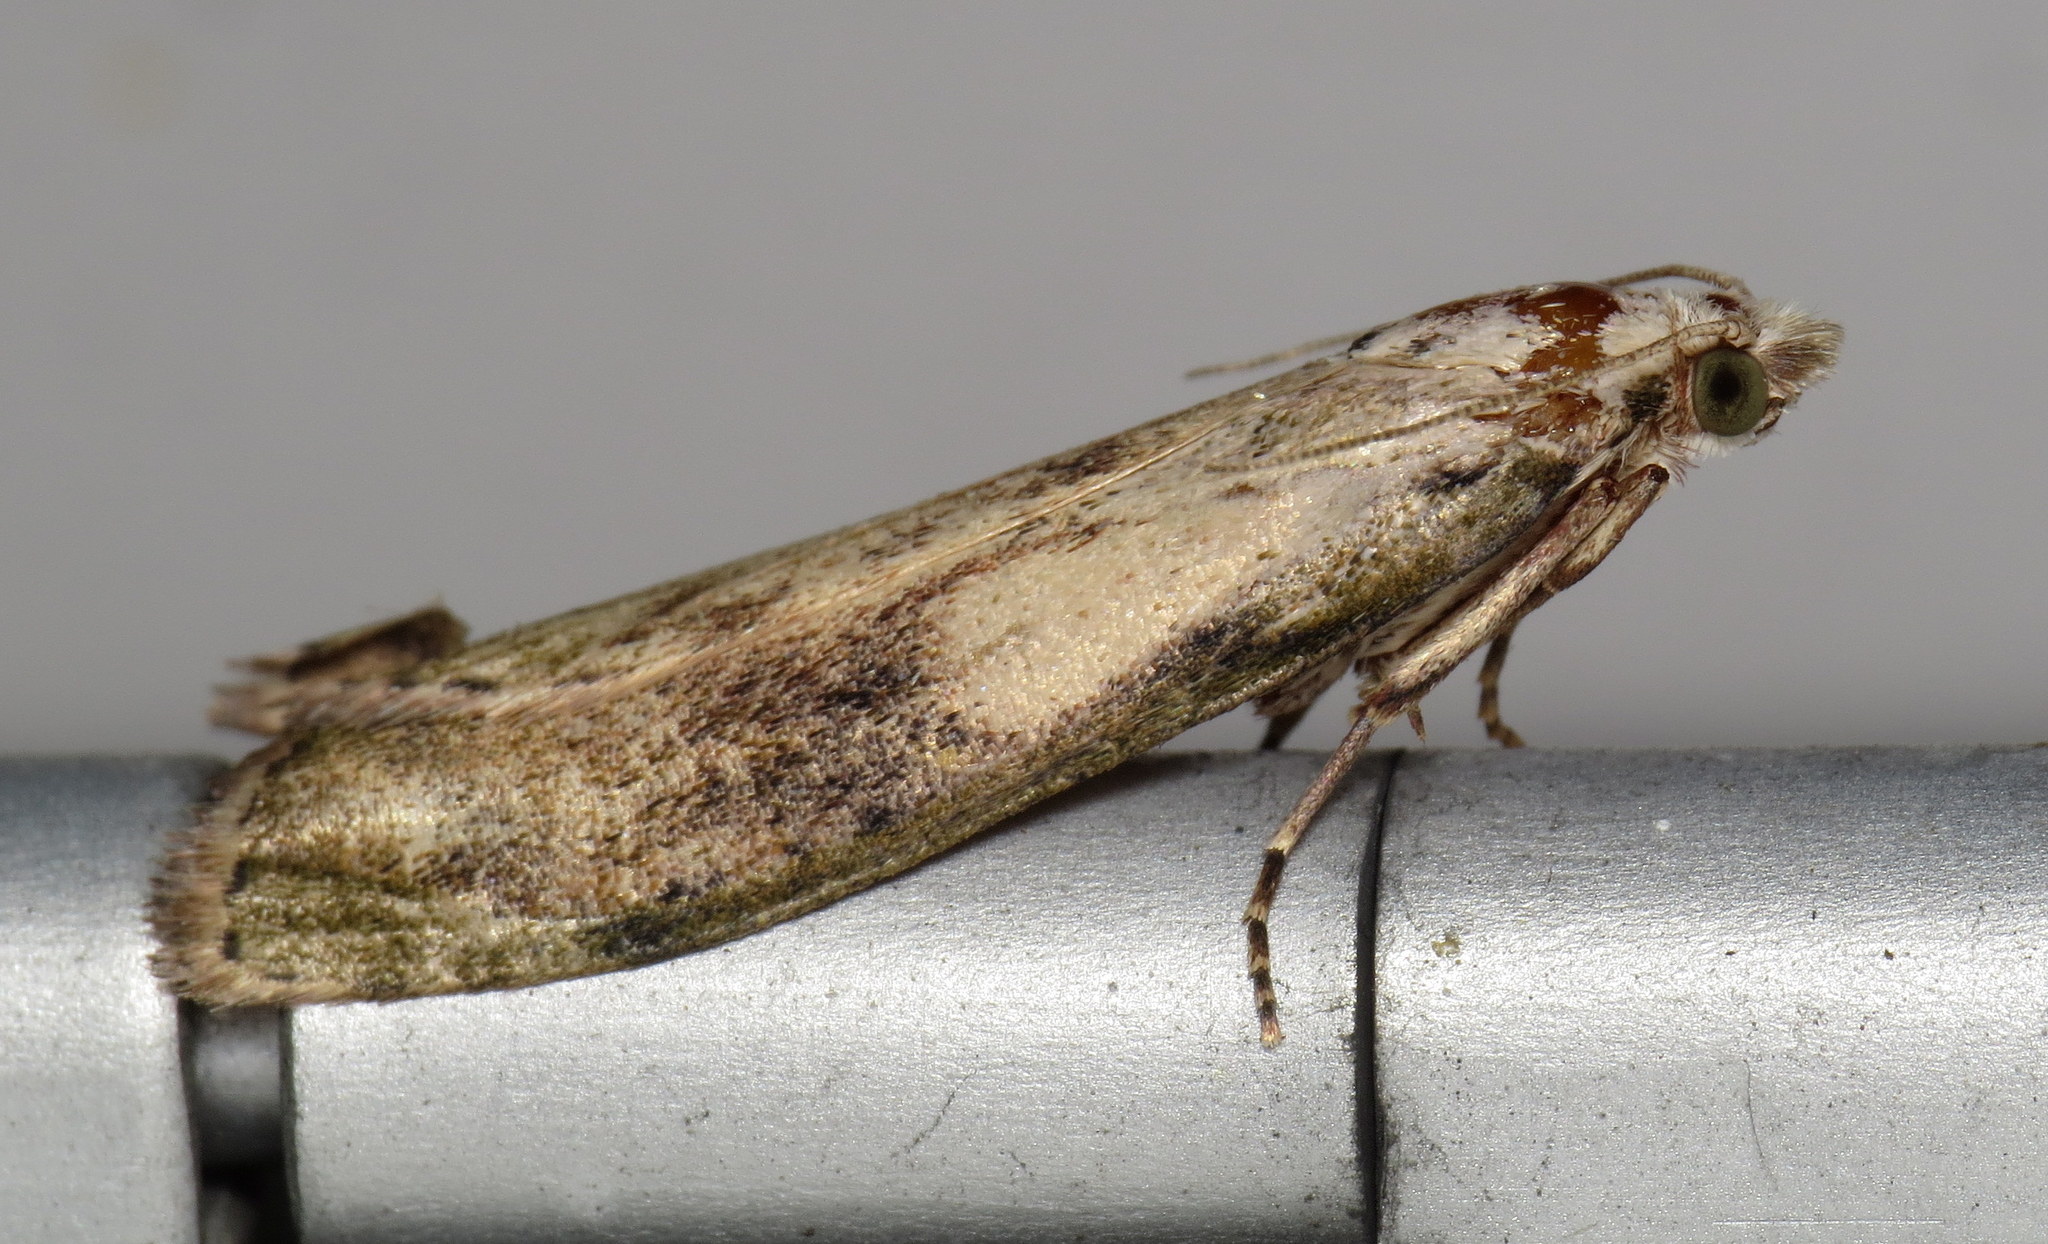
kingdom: Animalia
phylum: Arthropoda
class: Insecta
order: Lepidoptera
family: Pyralidae
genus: Aphomia
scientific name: Aphomia sociella
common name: Bee moth
